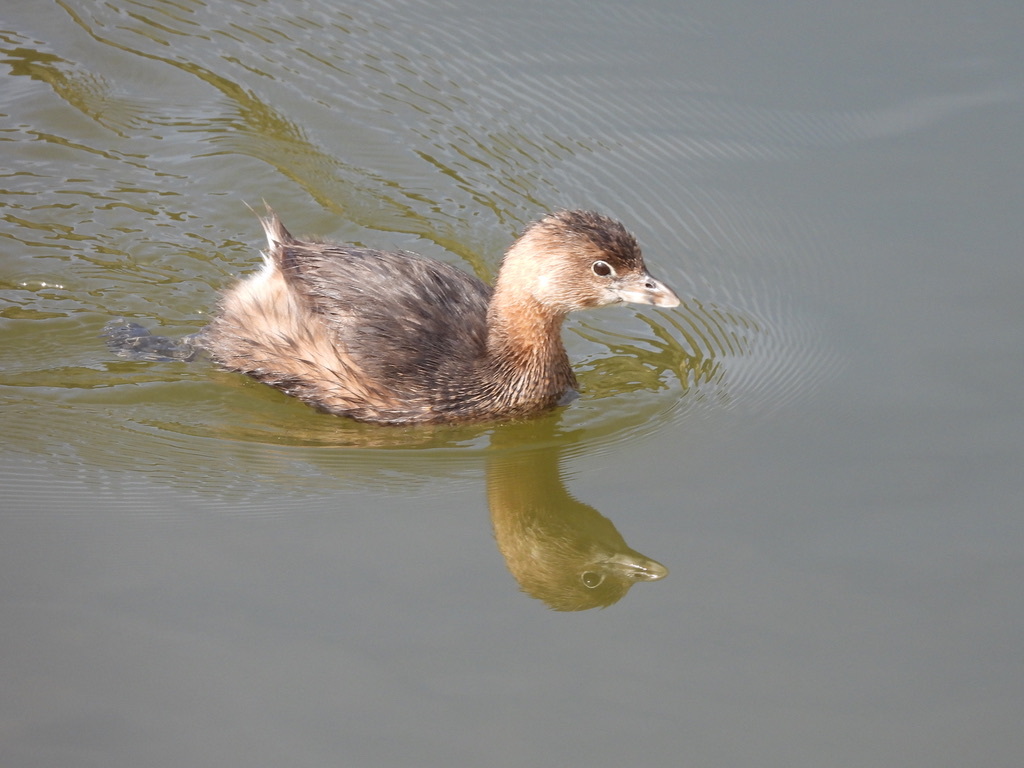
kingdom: Animalia
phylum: Chordata
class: Aves
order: Podicipediformes
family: Podicipedidae
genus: Podilymbus
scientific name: Podilymbus podiceps
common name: Pied-billed grebe
